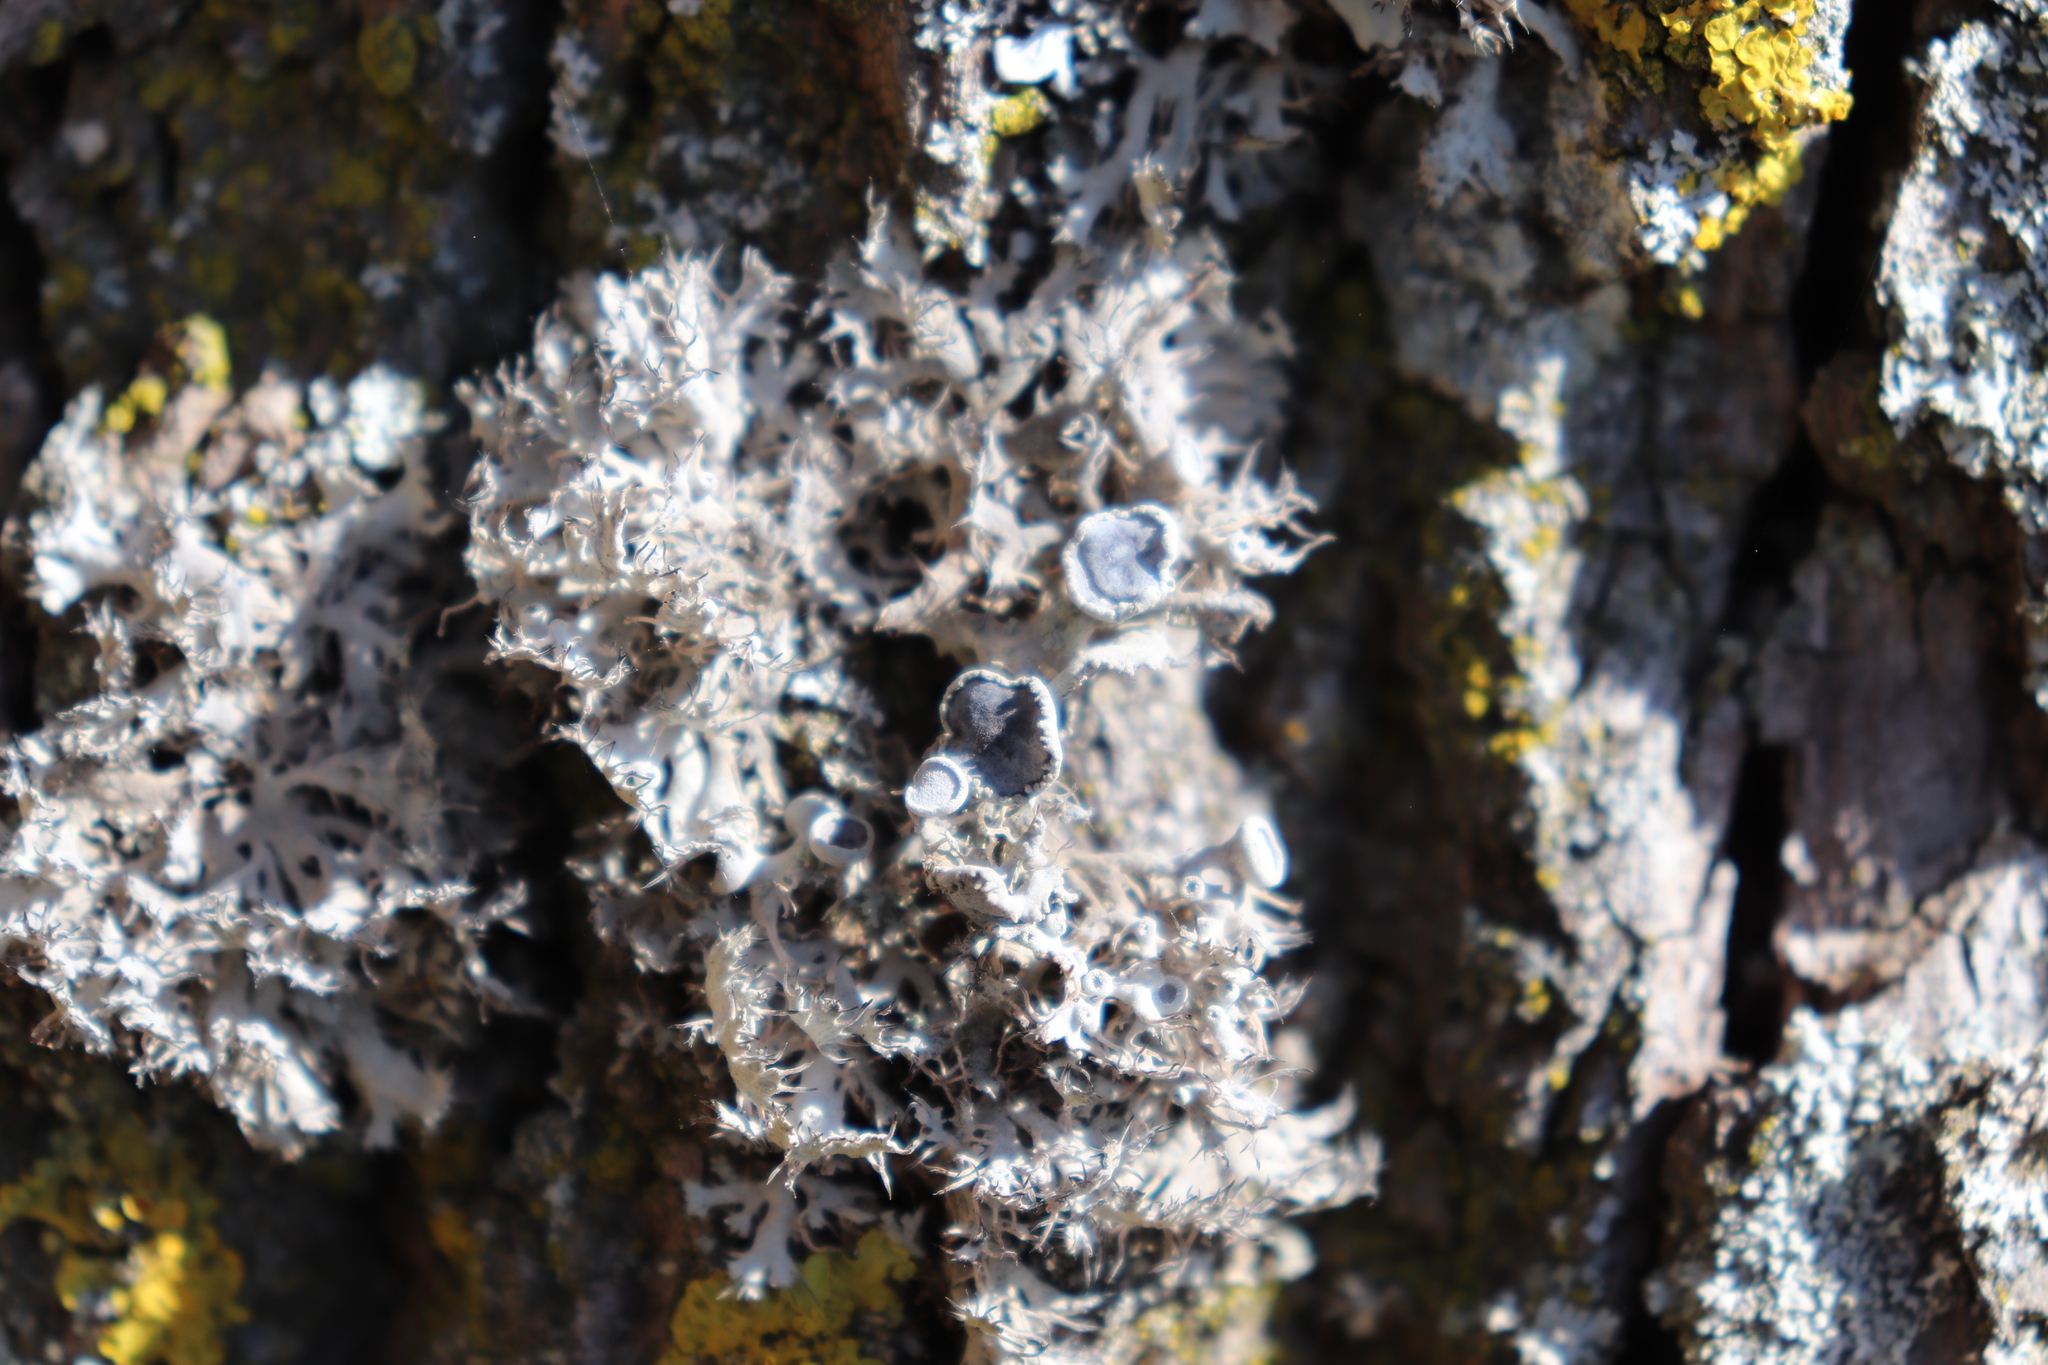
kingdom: Fungi
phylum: Ascomycota
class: Lecanoromycetes
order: Caliciales
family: Physciaceae
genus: Anaptychia
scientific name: Anaptychia ciliaris
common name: Great ciliated lichen
